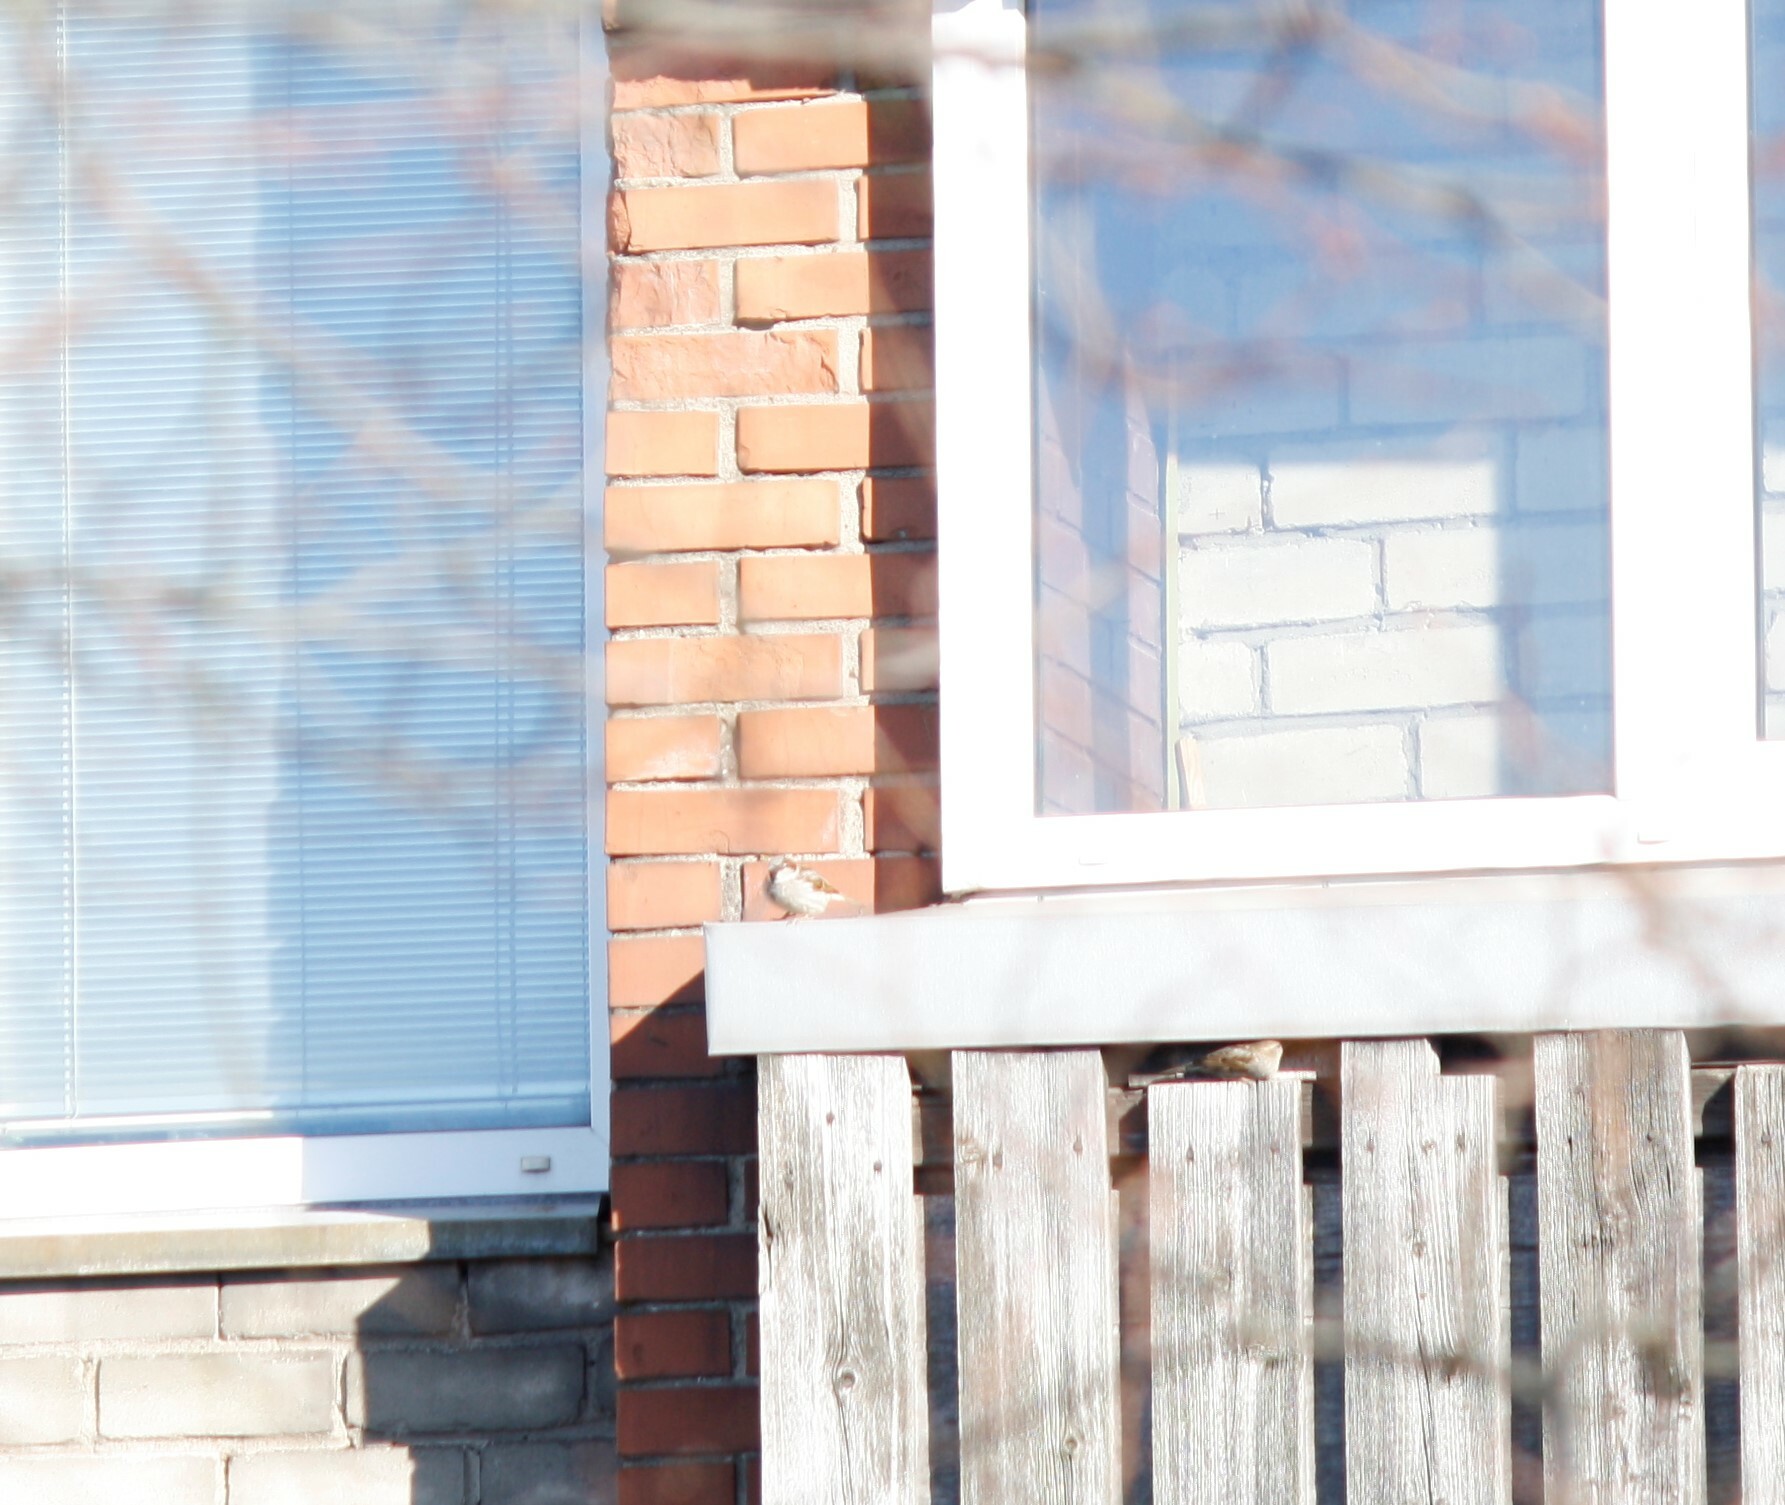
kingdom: Animalia
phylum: Chordata
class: Aves
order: Passeriformes
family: Passeridae
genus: Passer
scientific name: Passer domesticus
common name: House sparrow
